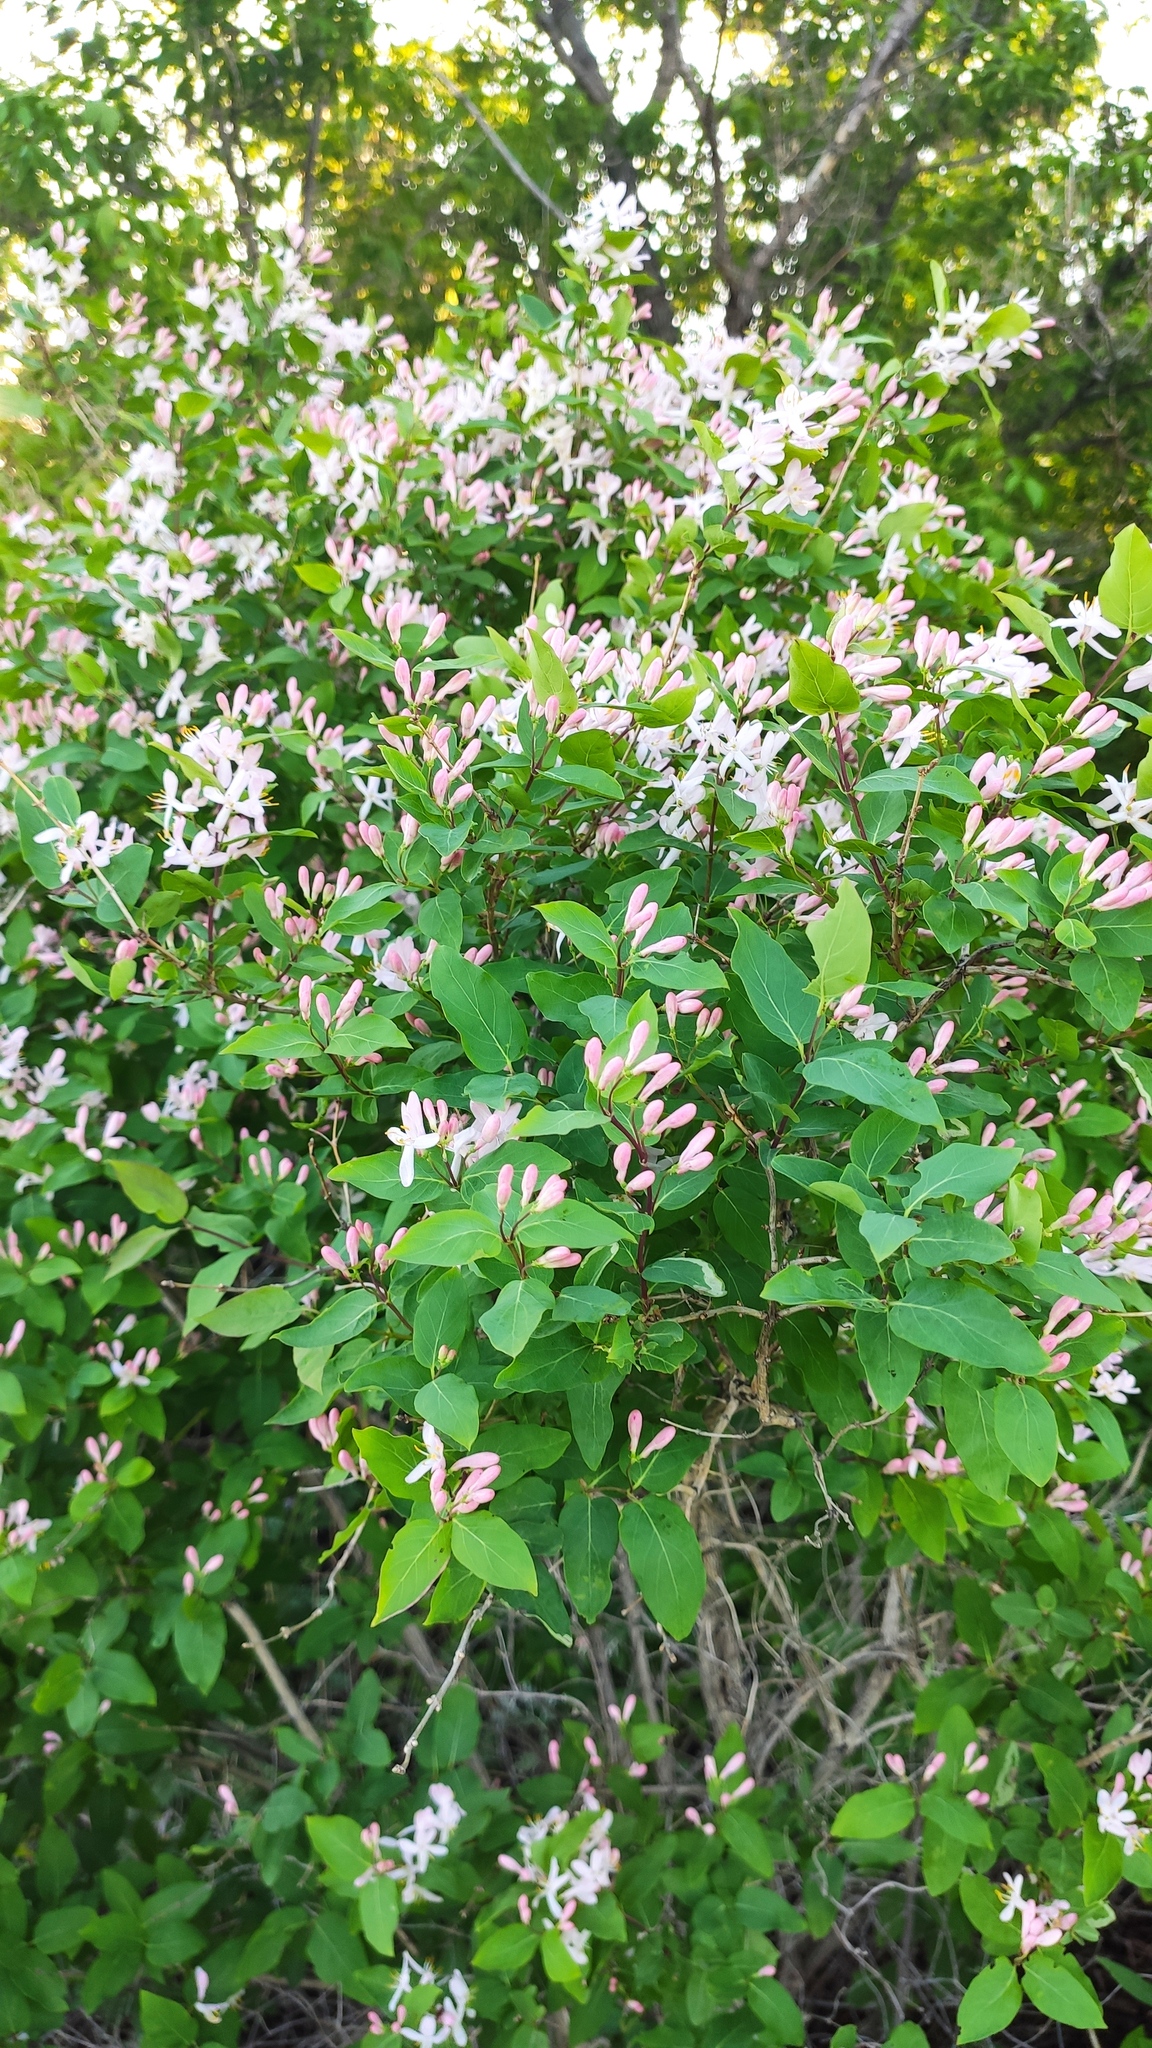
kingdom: Plantae
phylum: Tracheophyta
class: Magnoliopsida
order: Dipsacales
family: Caprifoliaceae
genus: Lonicera
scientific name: Lonicera tatarica
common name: Tatarian honeysuckle
